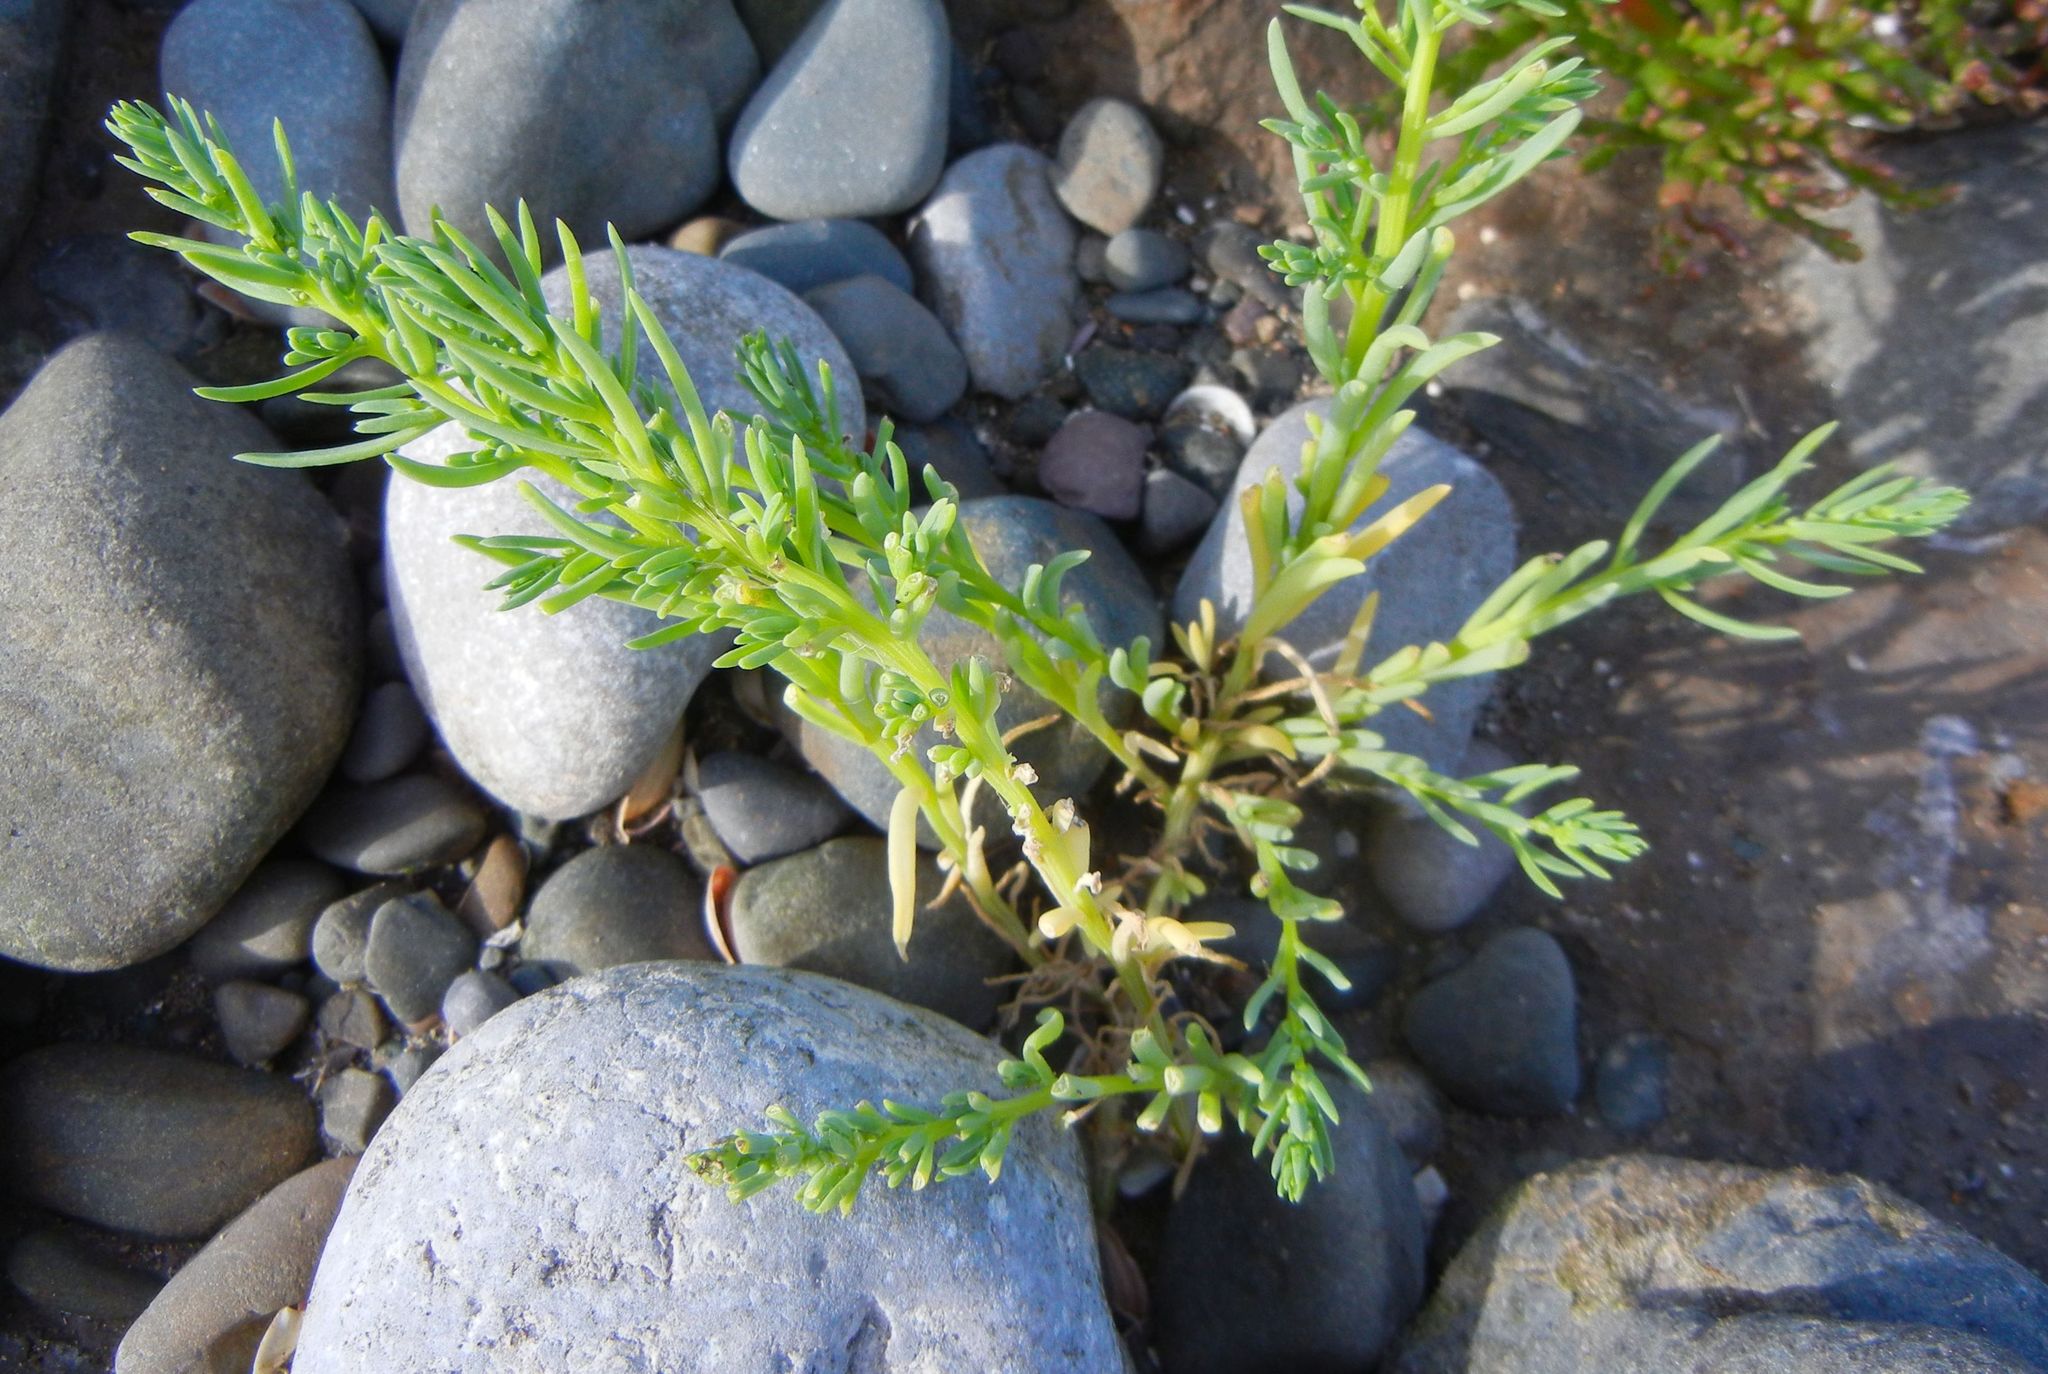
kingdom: Plantae
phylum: Tracheophyta
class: Magnoliopsida
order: Caryophyllales
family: Amaranthaceae
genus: Suaeda
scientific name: Suaeda maritima
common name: Annual sea-blite
